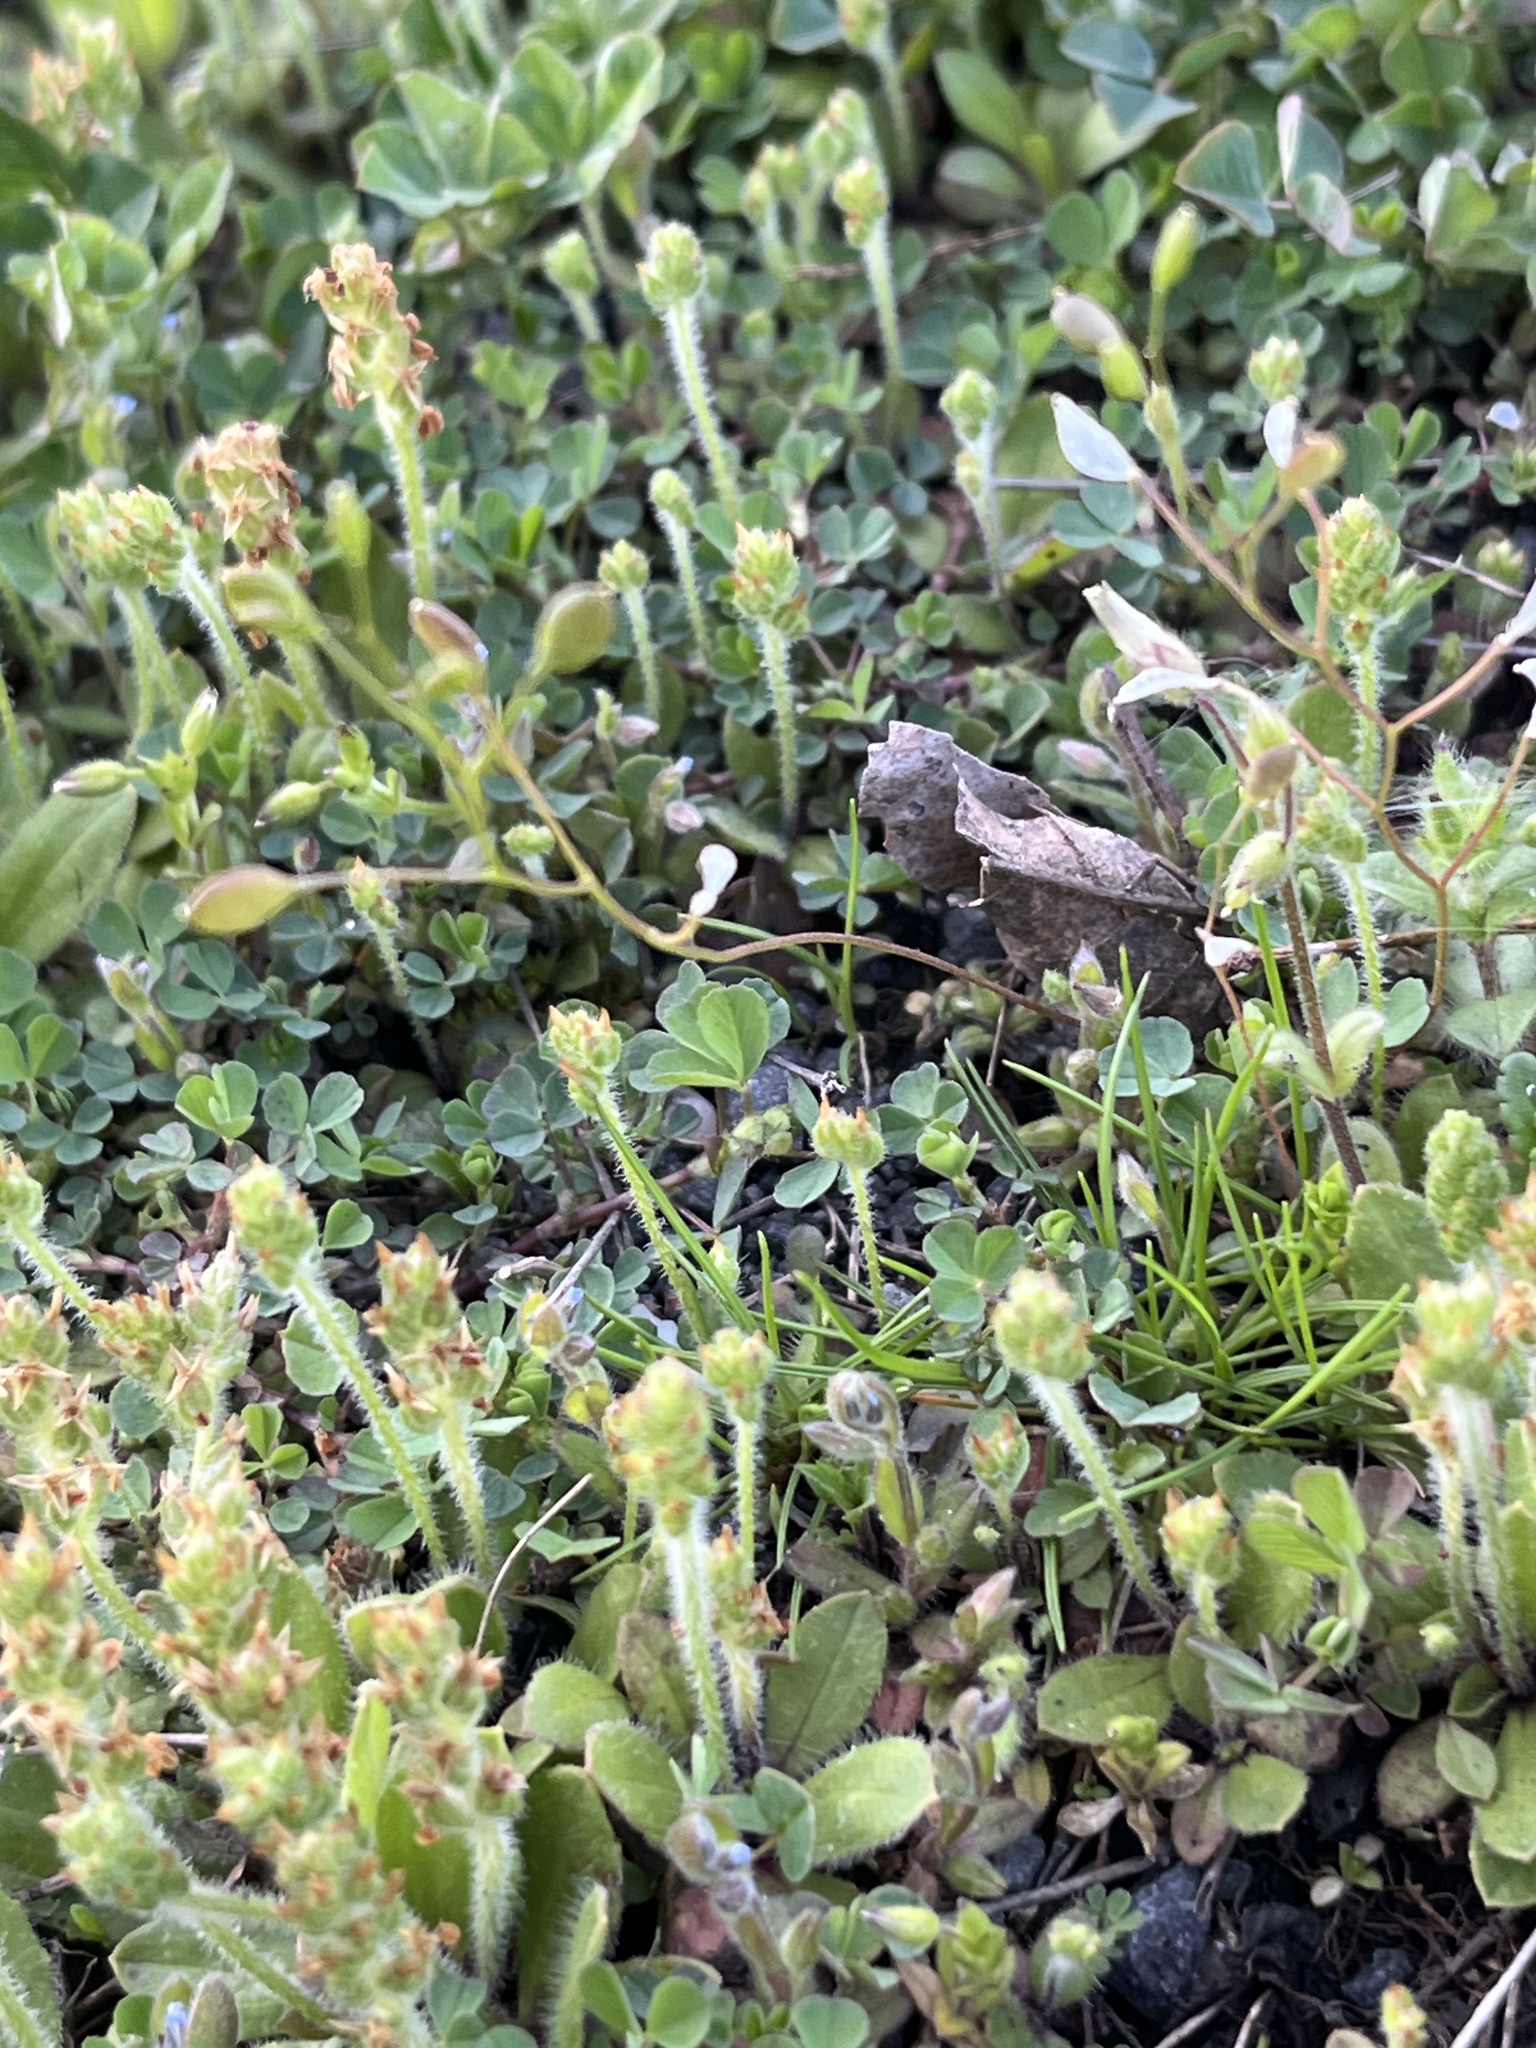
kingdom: Plantae
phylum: Tracheophyta
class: Magnoliopsida
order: Brassicales
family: Brassicaceae
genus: Draba
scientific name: Draba verna
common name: Spring draba
